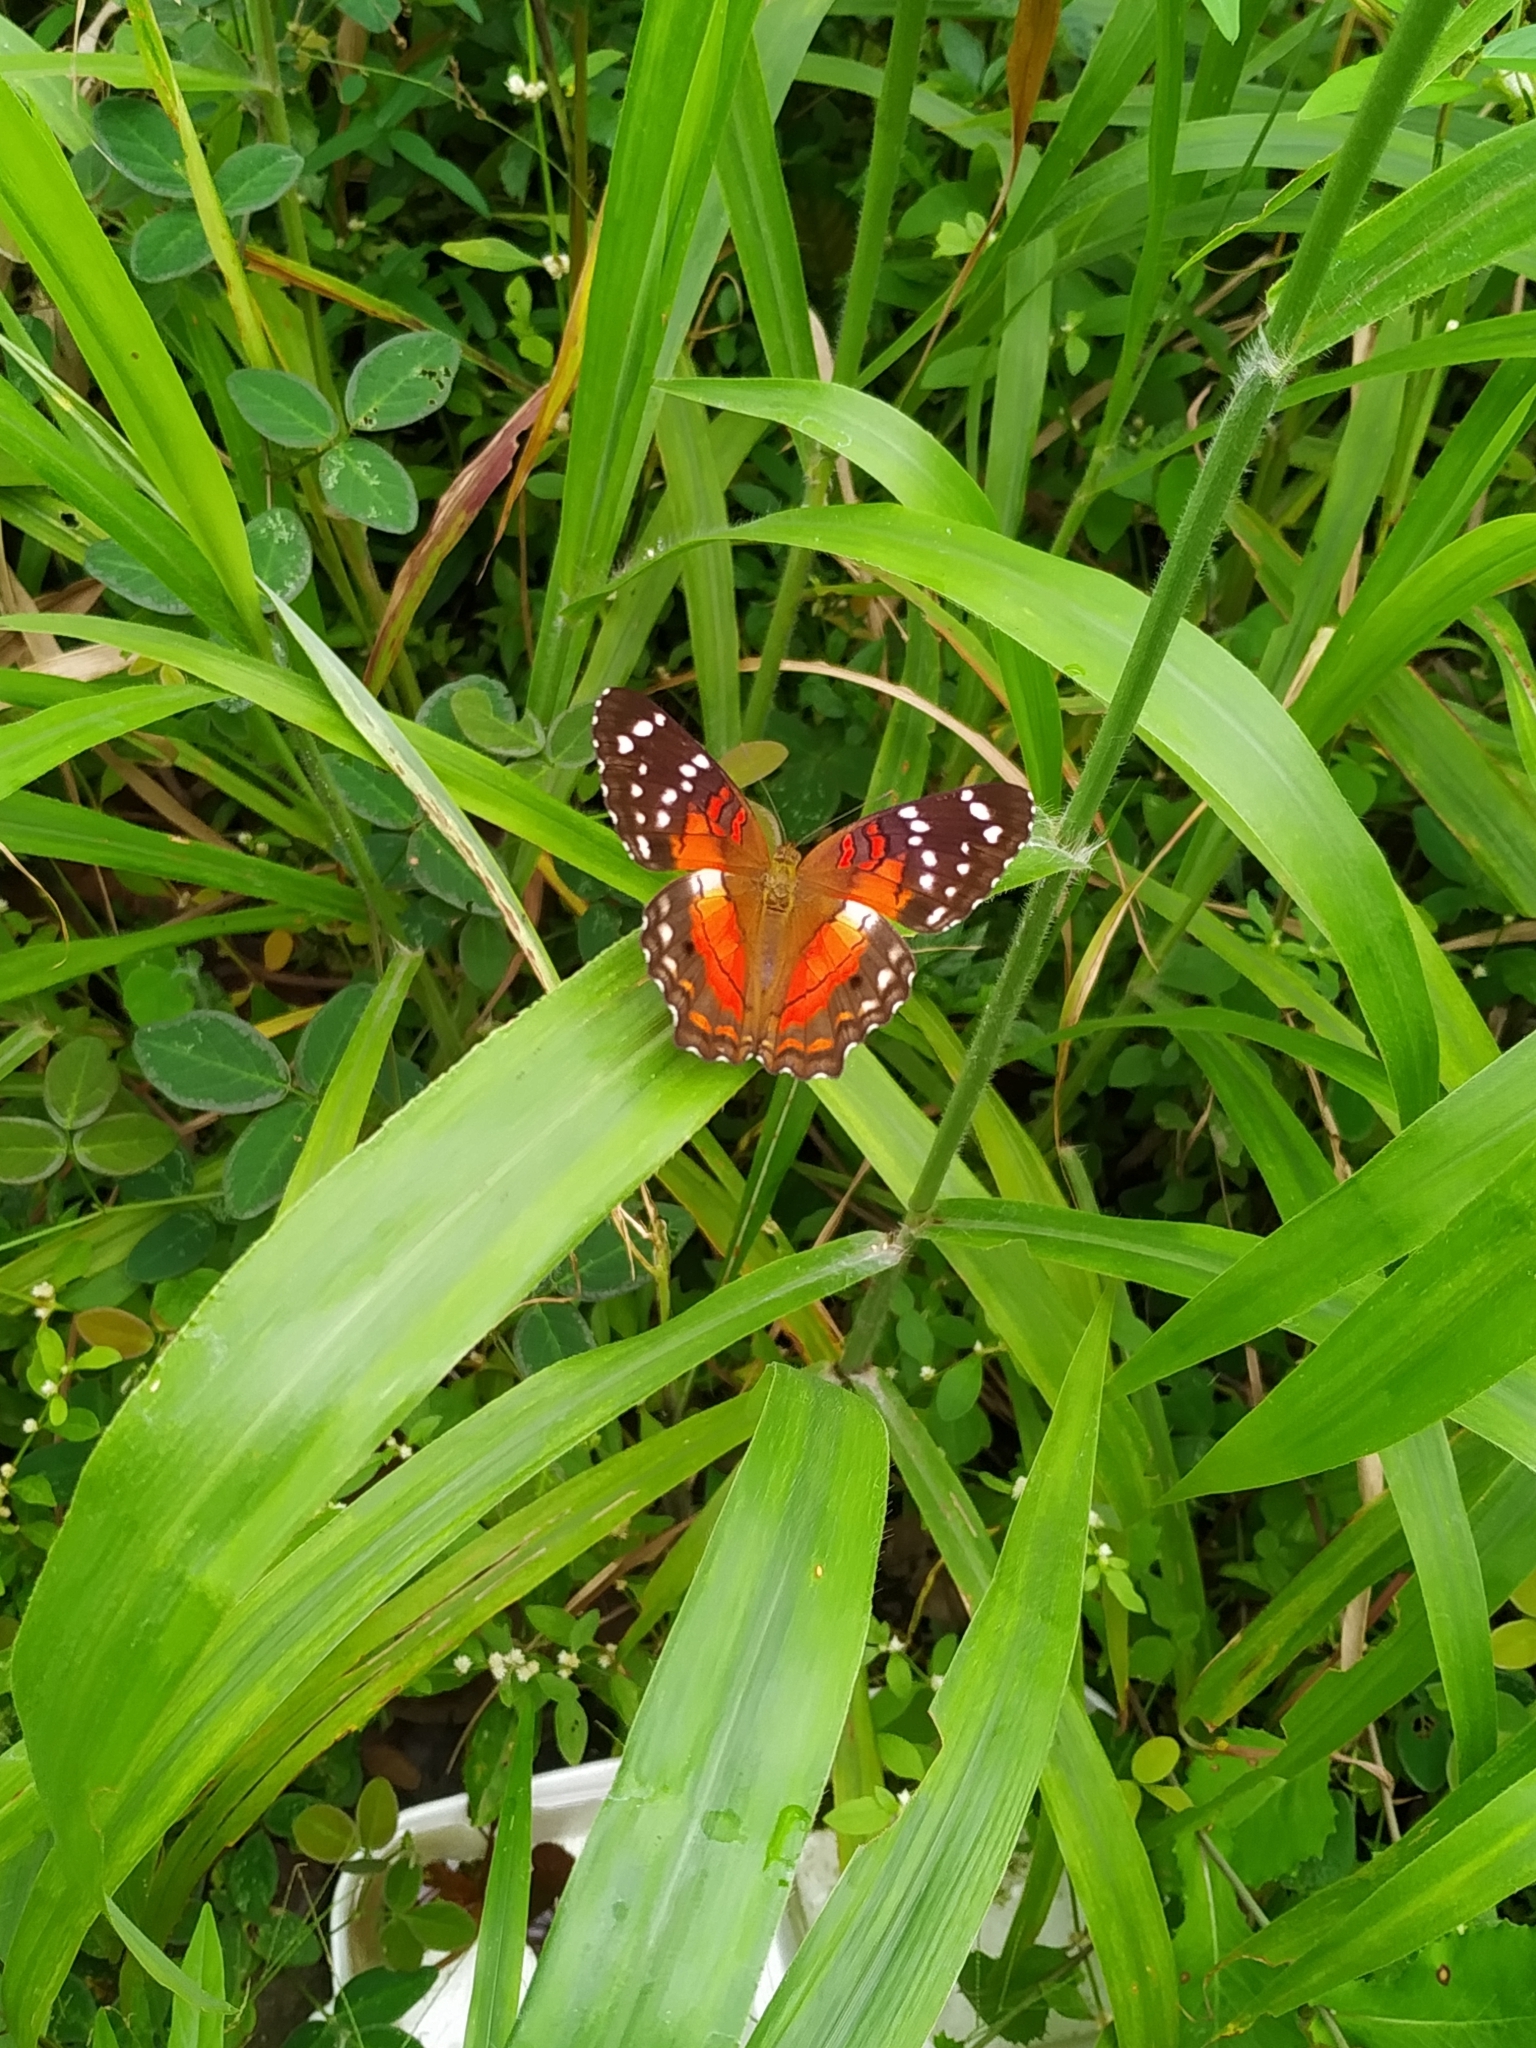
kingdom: Animalia
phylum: Arthropoda
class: Insecta
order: Lepidoptera
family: Nymphalidae
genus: Anartia
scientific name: Anartia amathea
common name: Red peacock
